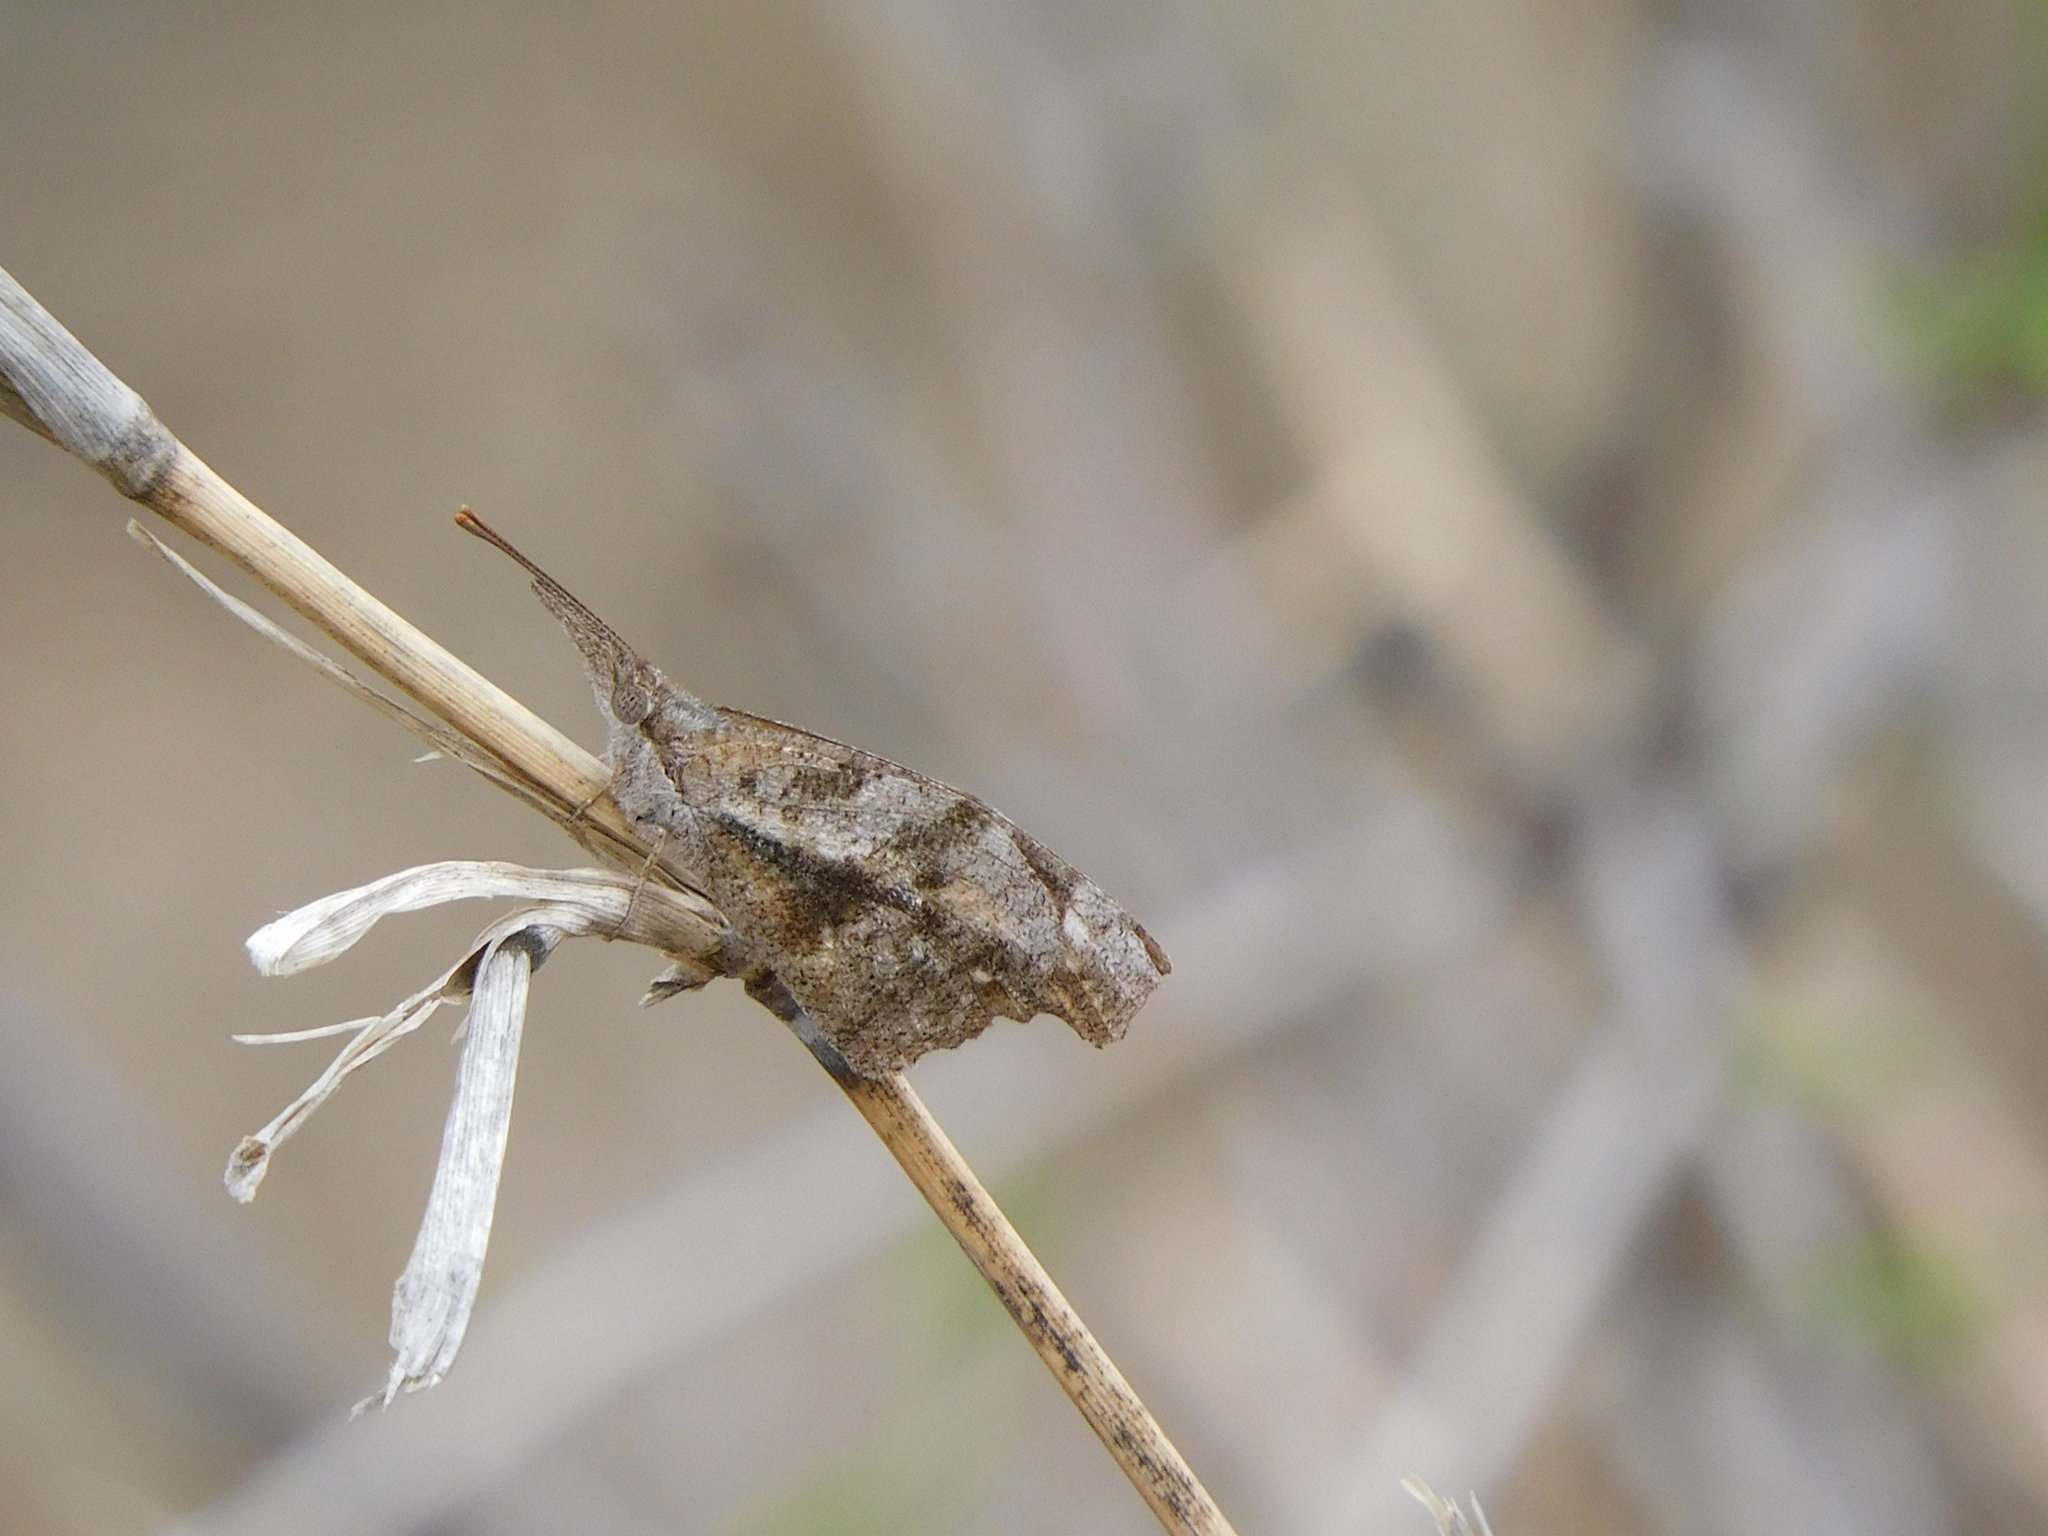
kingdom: Animalia
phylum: Arthropoda
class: Insecta
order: Lepidoptera
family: Nymphalidae
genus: Libytheana
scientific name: Libytheana carinenta
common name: American snout
